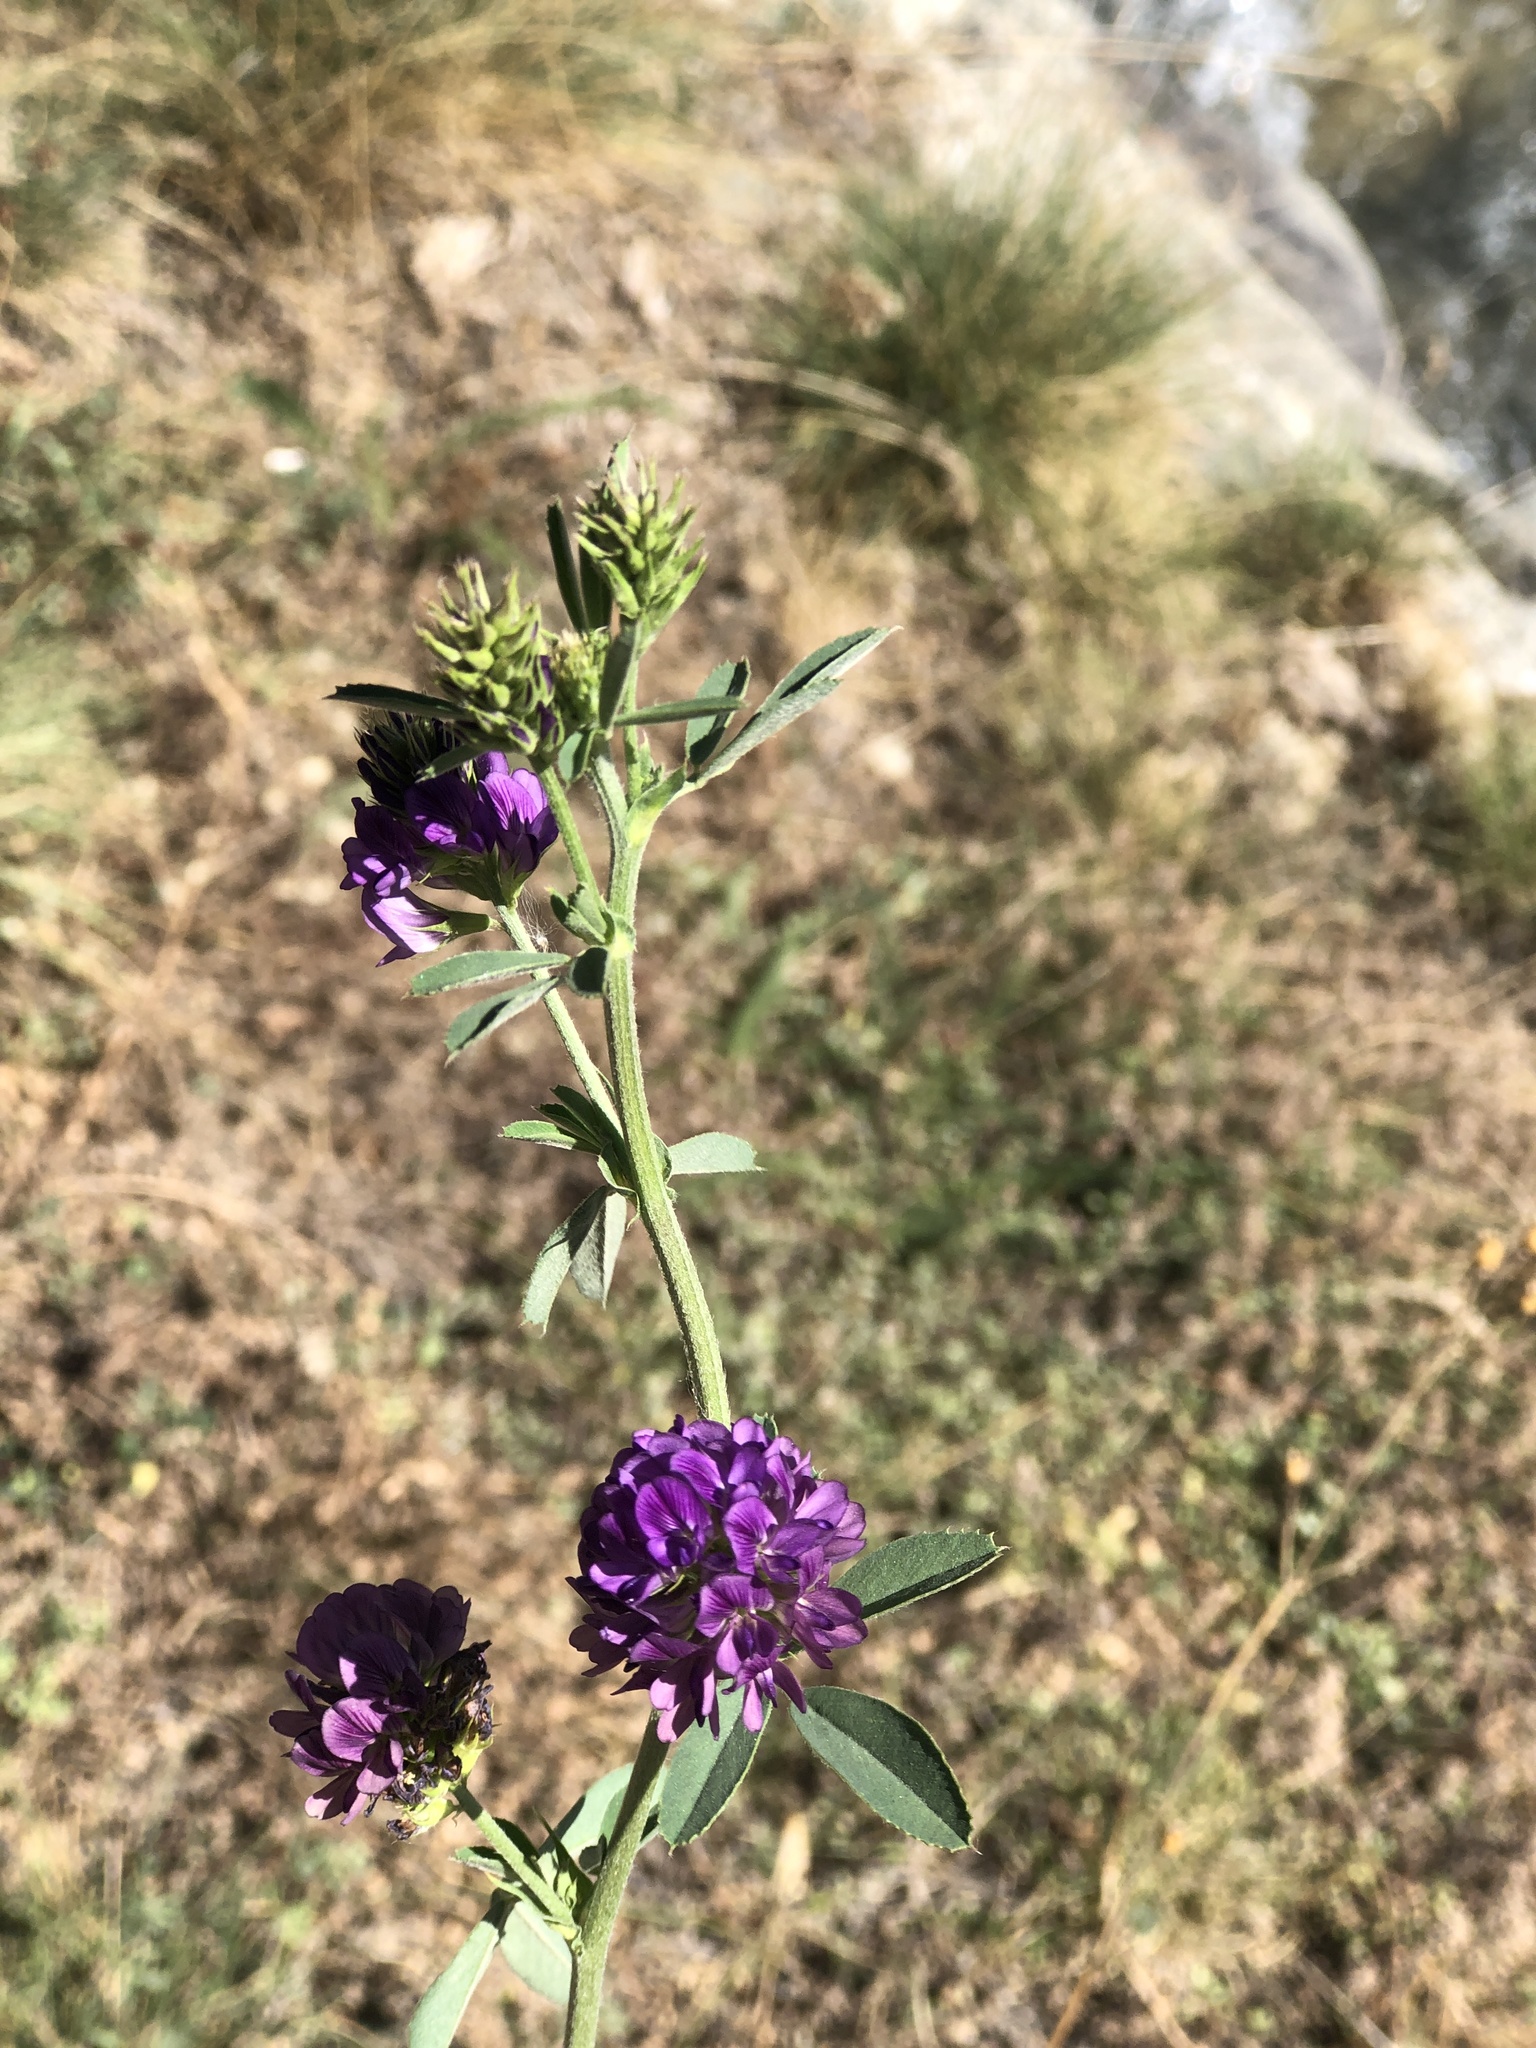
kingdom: Plantae
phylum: Tracheophyta
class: Magnoliopsida
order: Fabales
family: Fabaceae
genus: Medicago
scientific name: Medicago sativa
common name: Alfalfa
